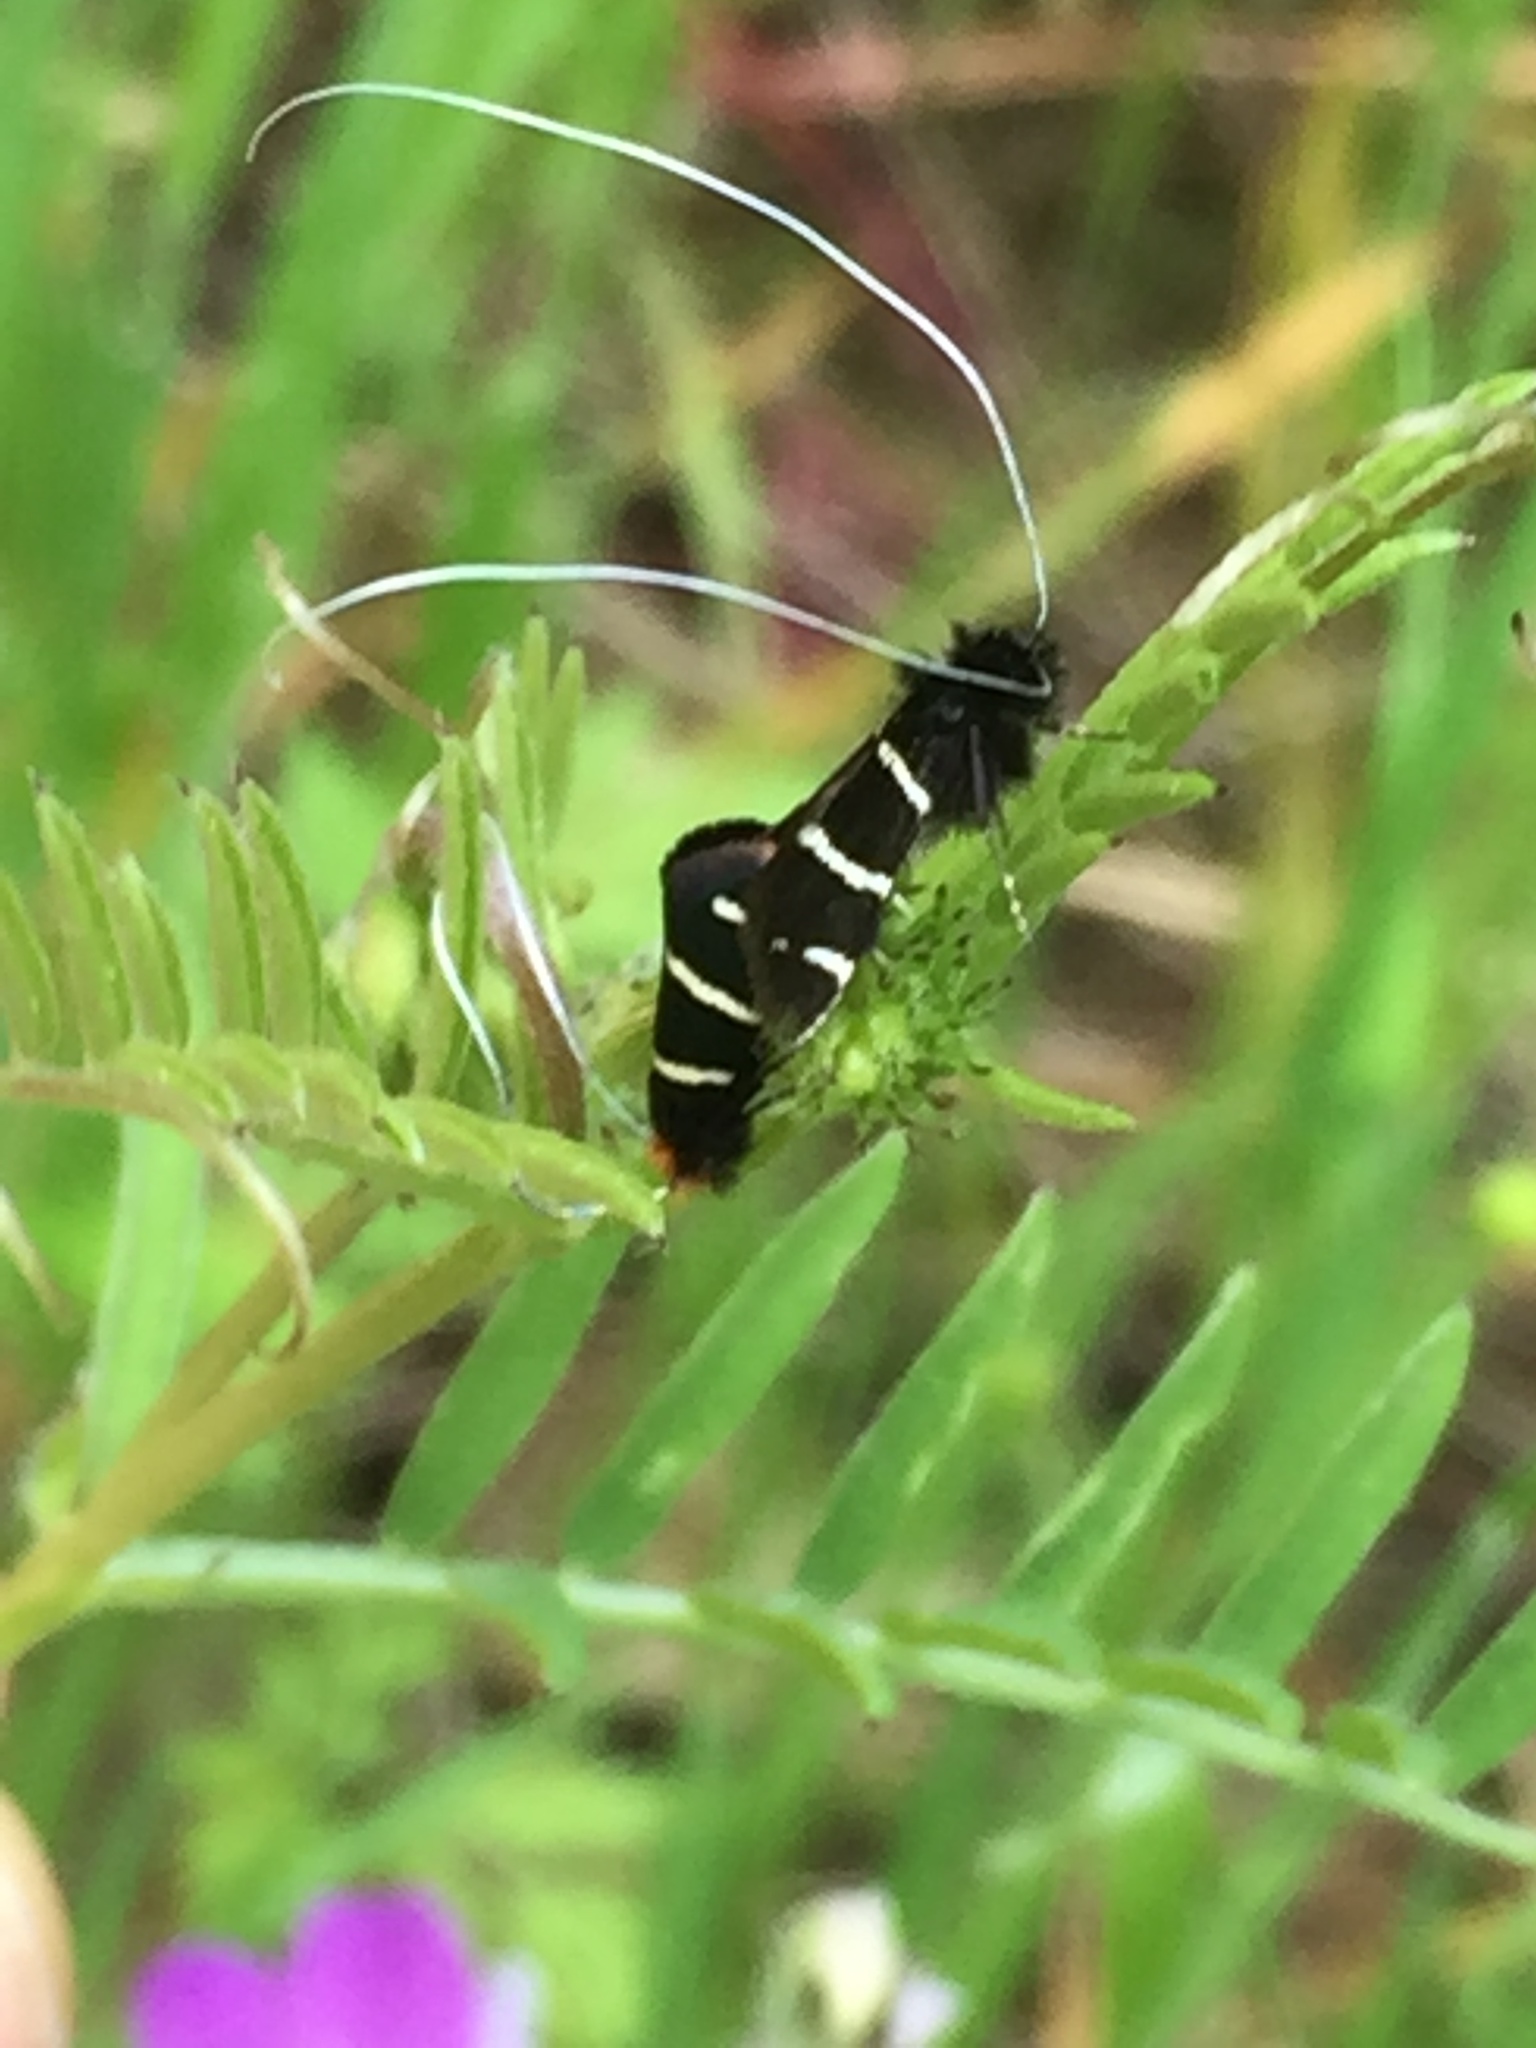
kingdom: Animalia
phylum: Arthropoda
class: Insecta
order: Lepidoptera
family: Adelidae
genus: Adela
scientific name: Adela trigrapha
